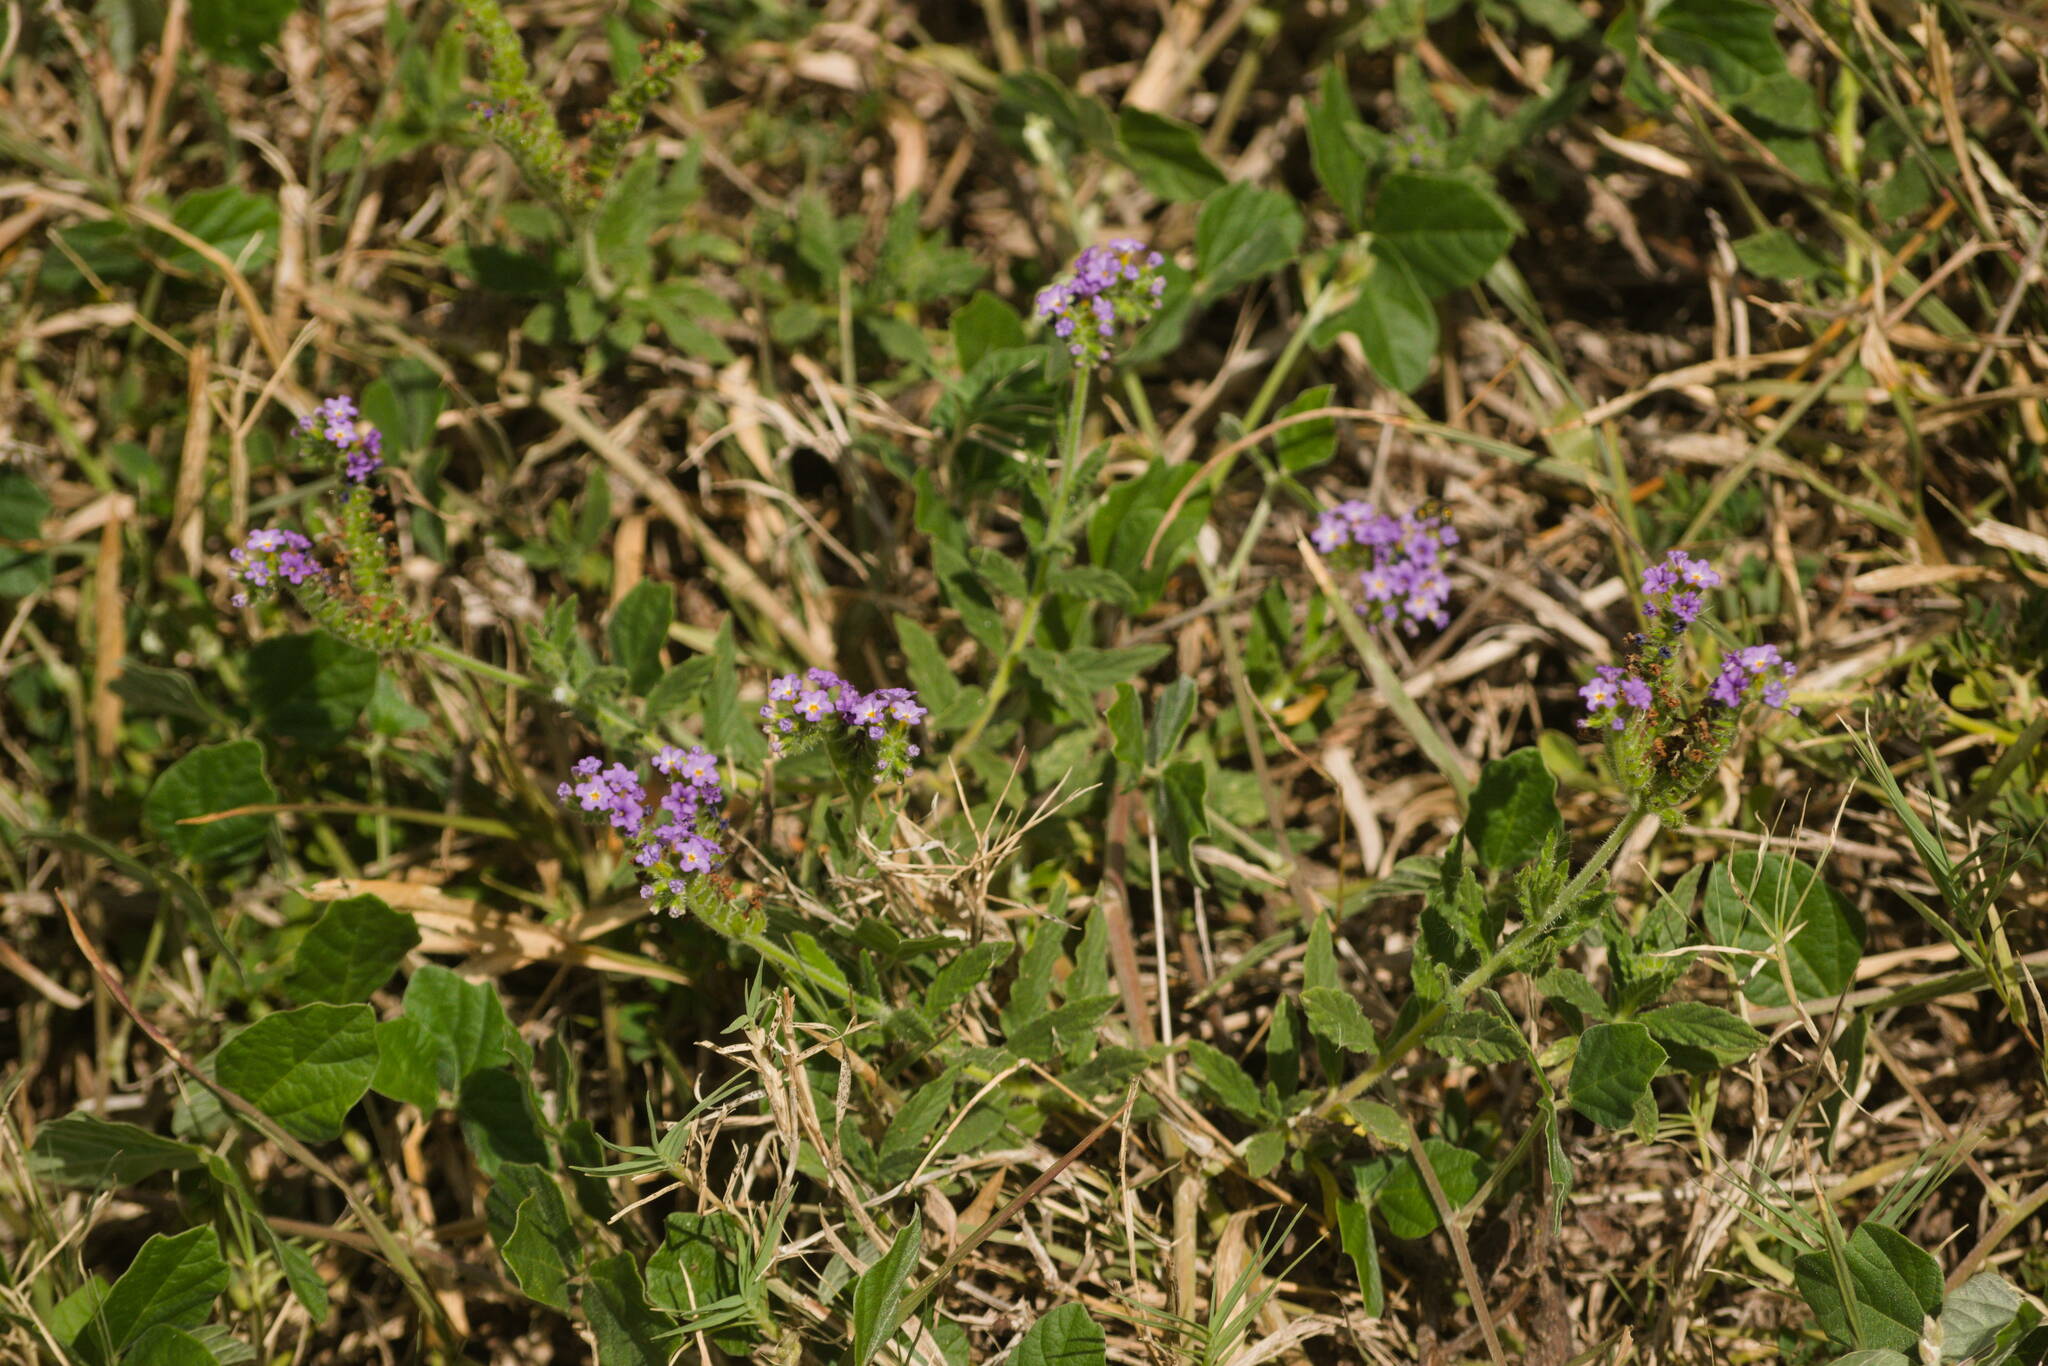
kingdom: Plantae
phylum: Tracheophyta
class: Magnoliopsida
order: Boraginales
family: Heliotropiaceae
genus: Heliotropium
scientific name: Heliotropium amplexicaule
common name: Clasping heliotrope
